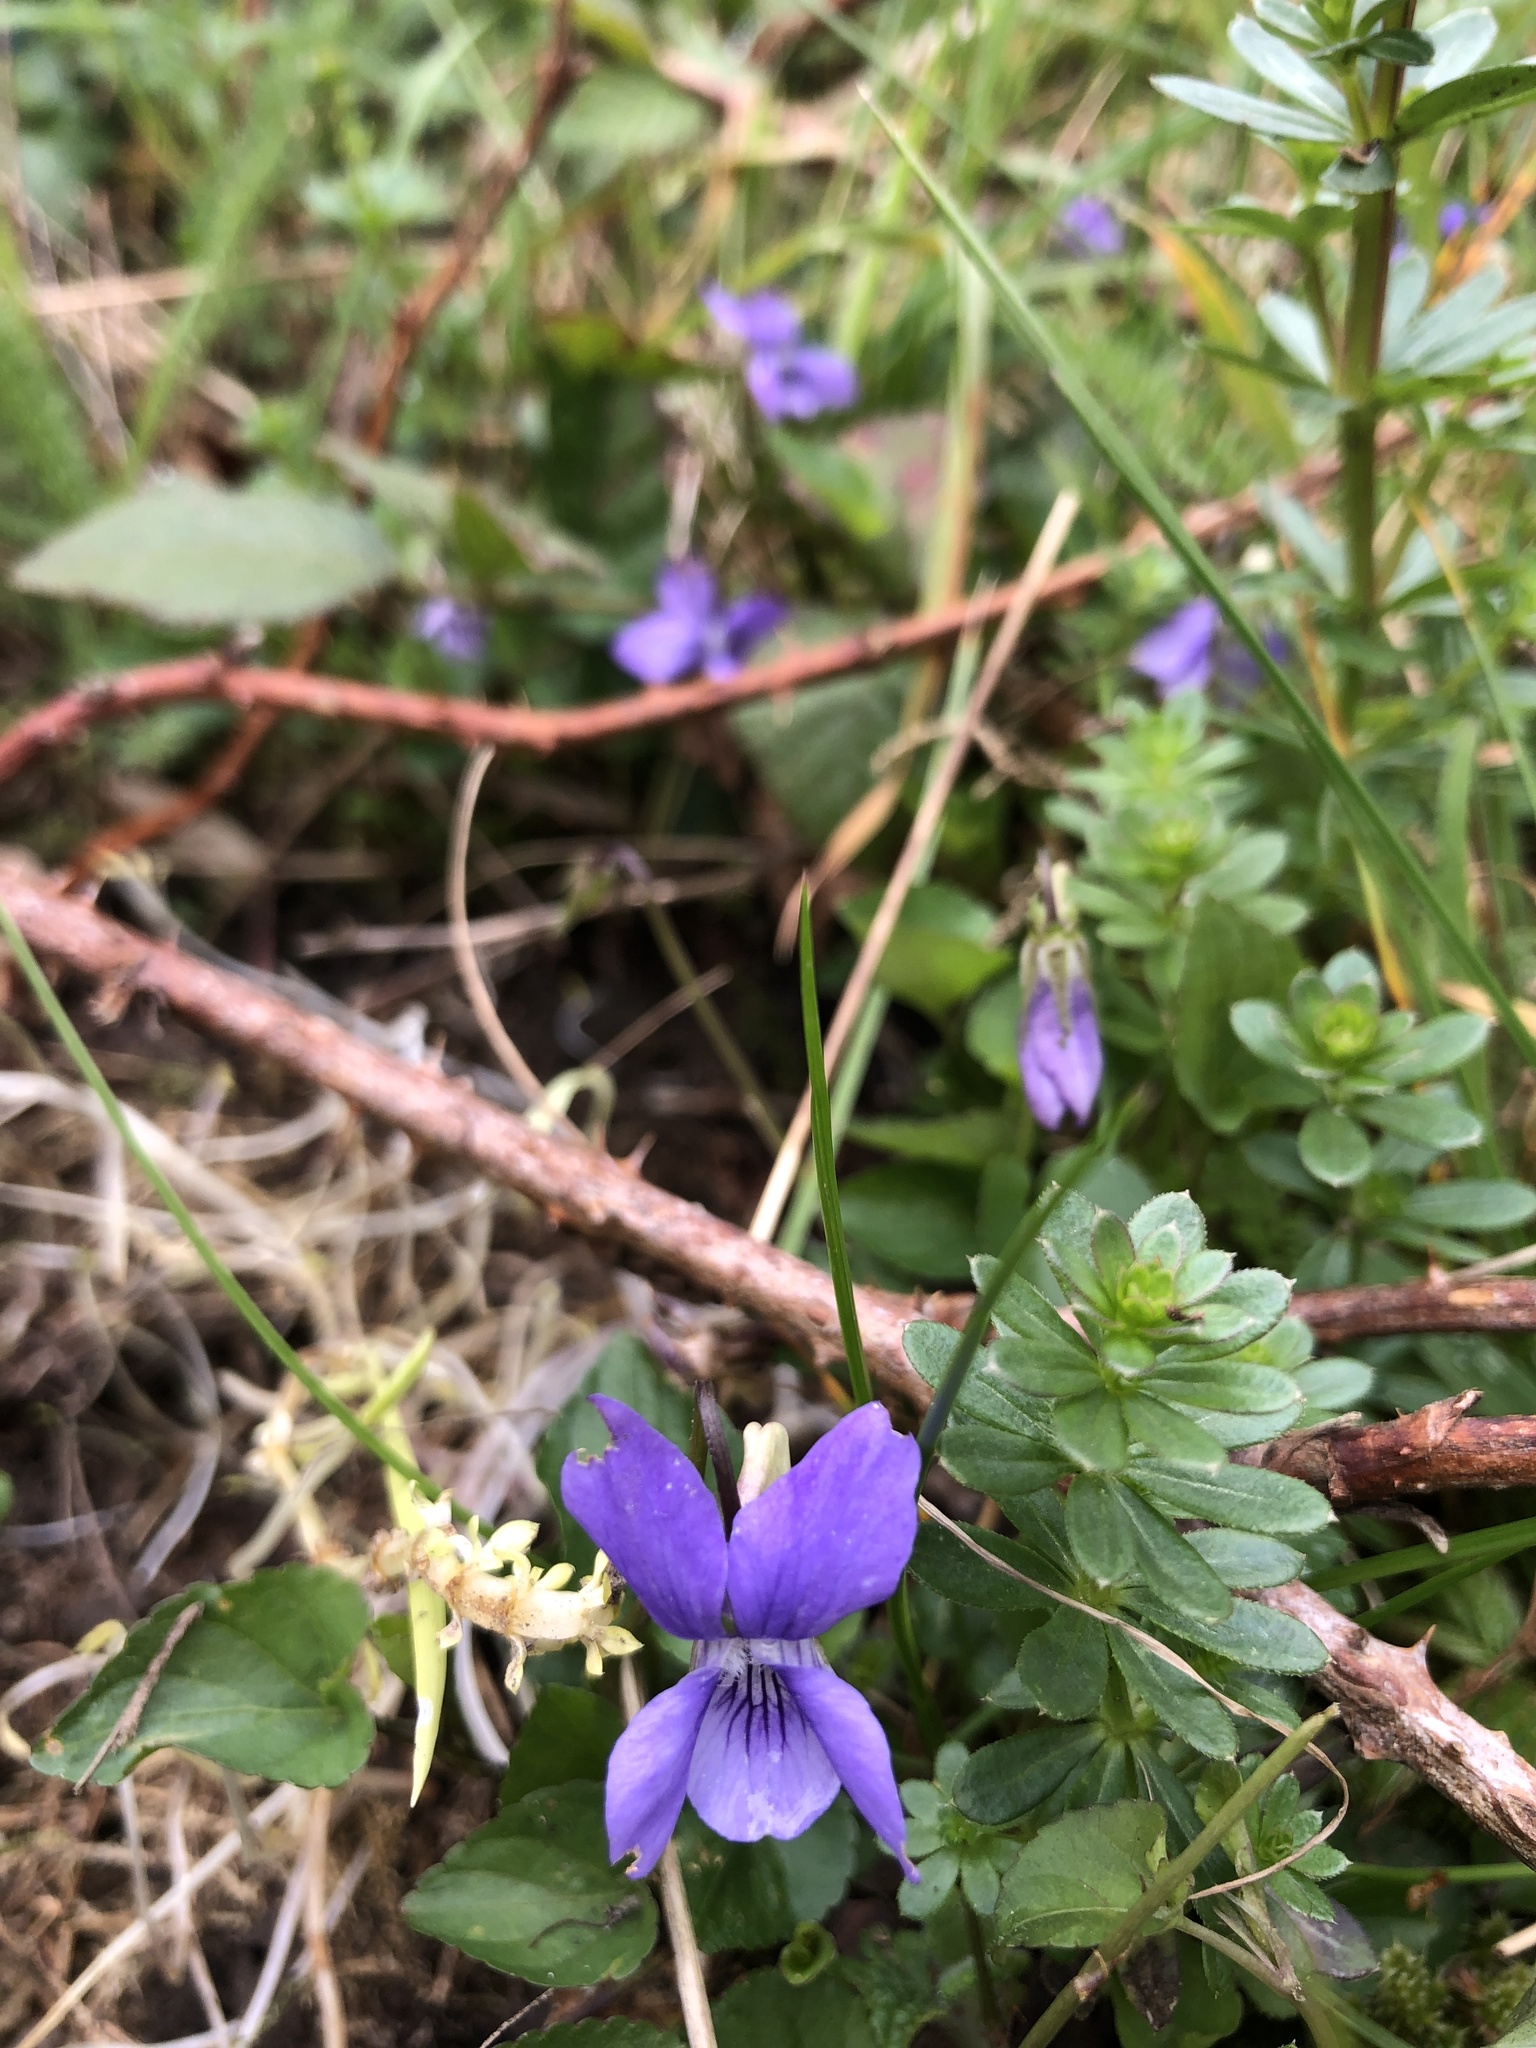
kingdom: Plantae
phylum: Tracheophyta
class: Magnoliopsida
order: Malpighiales
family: Violaceae
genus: Viola
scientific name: Viola riviniana
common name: Common dog-violet
